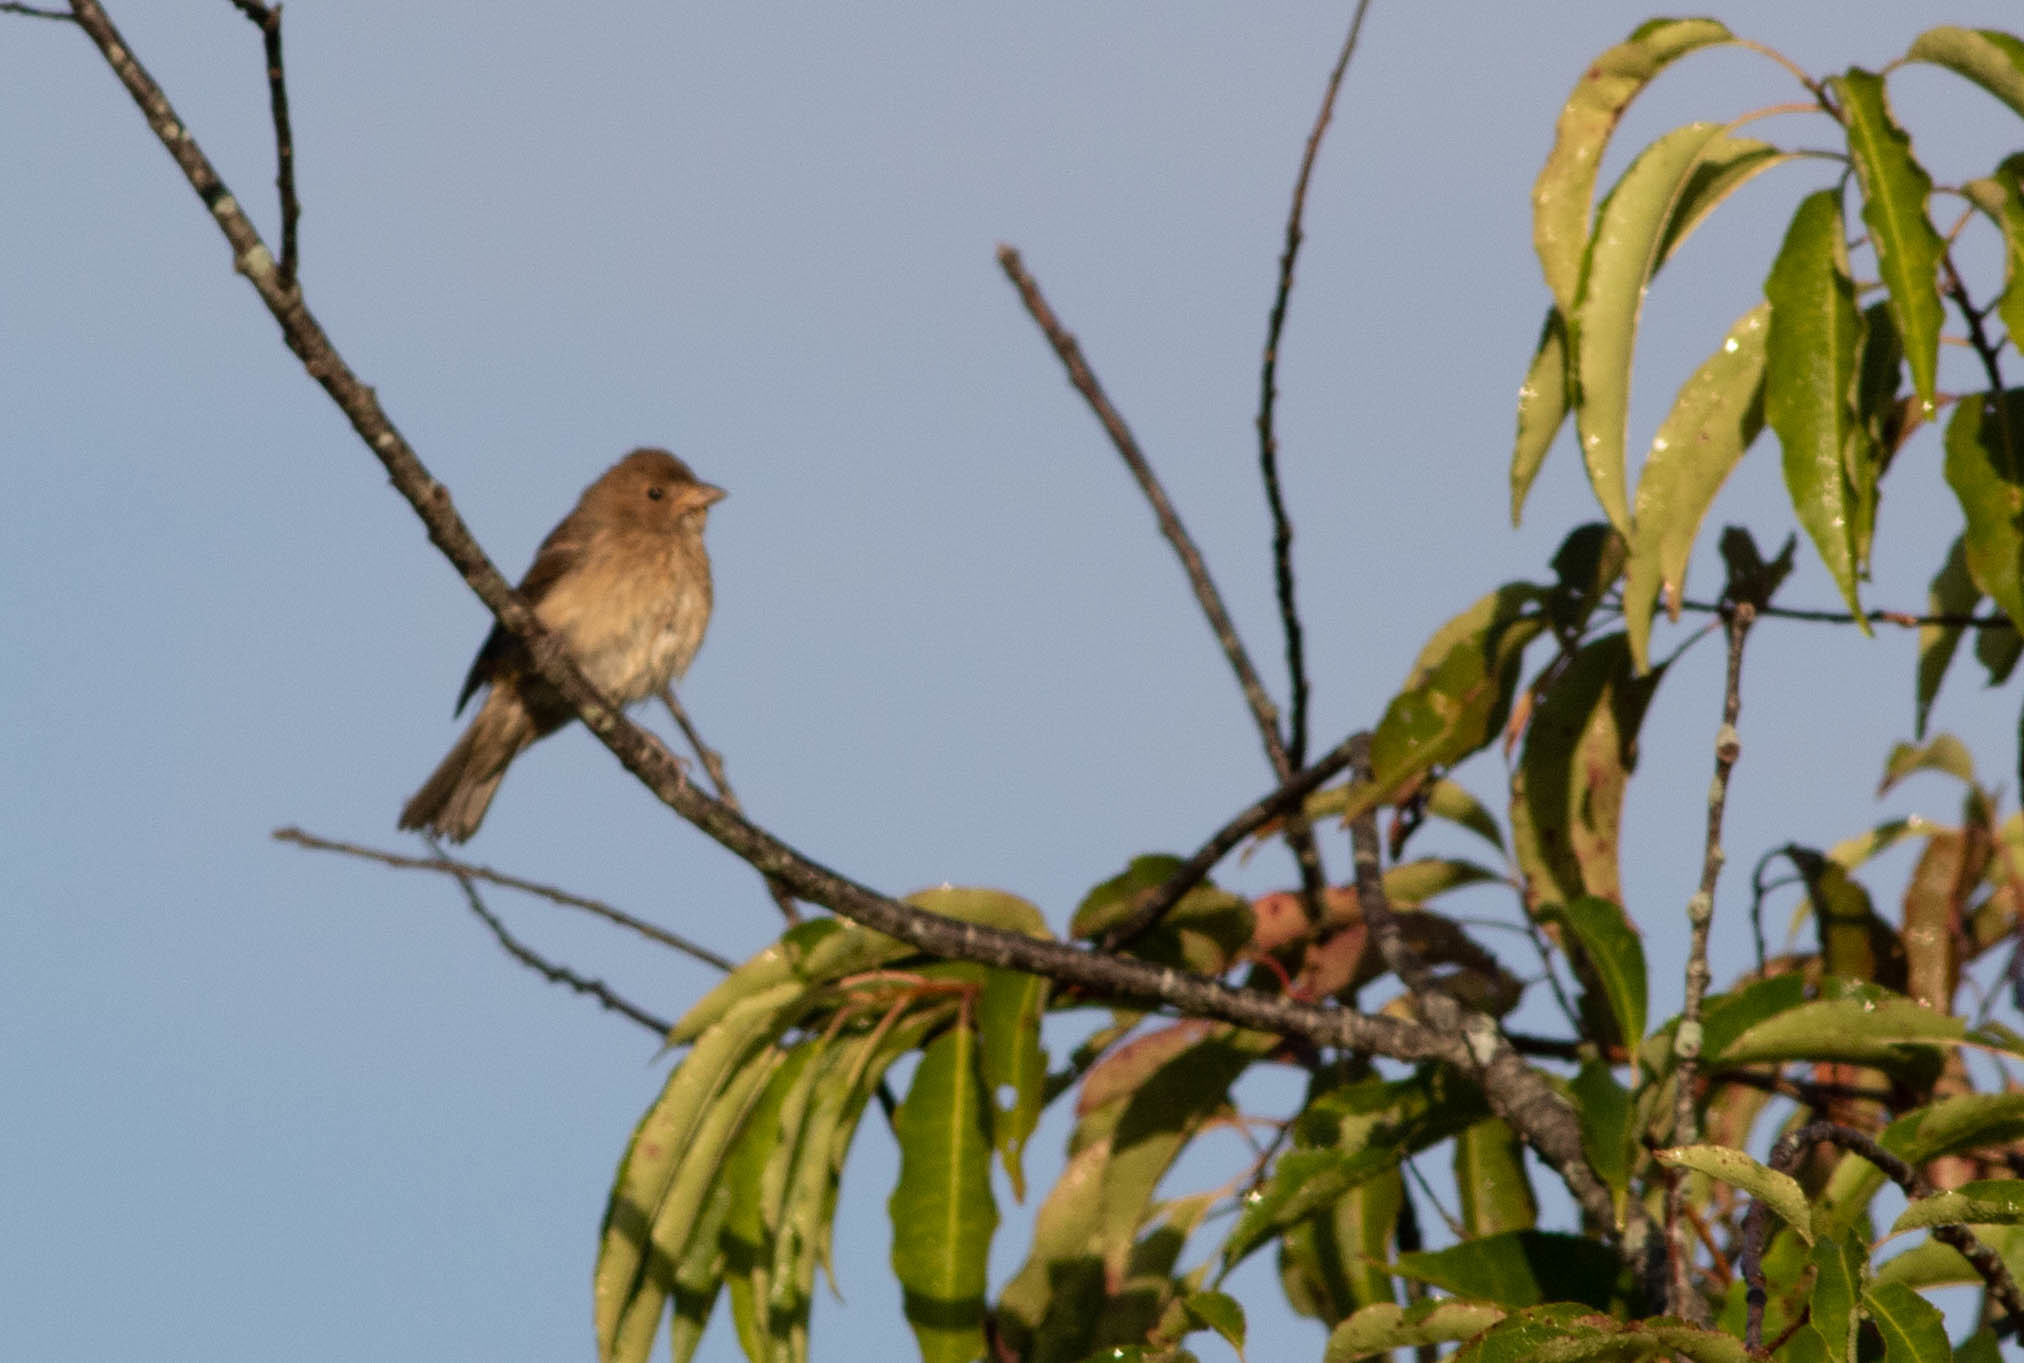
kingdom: Animalia
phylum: Chordata
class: Aves
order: Passeriformes
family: Cardinalidae
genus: Passerina
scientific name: Passerina cyanea
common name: Indigo bunting
